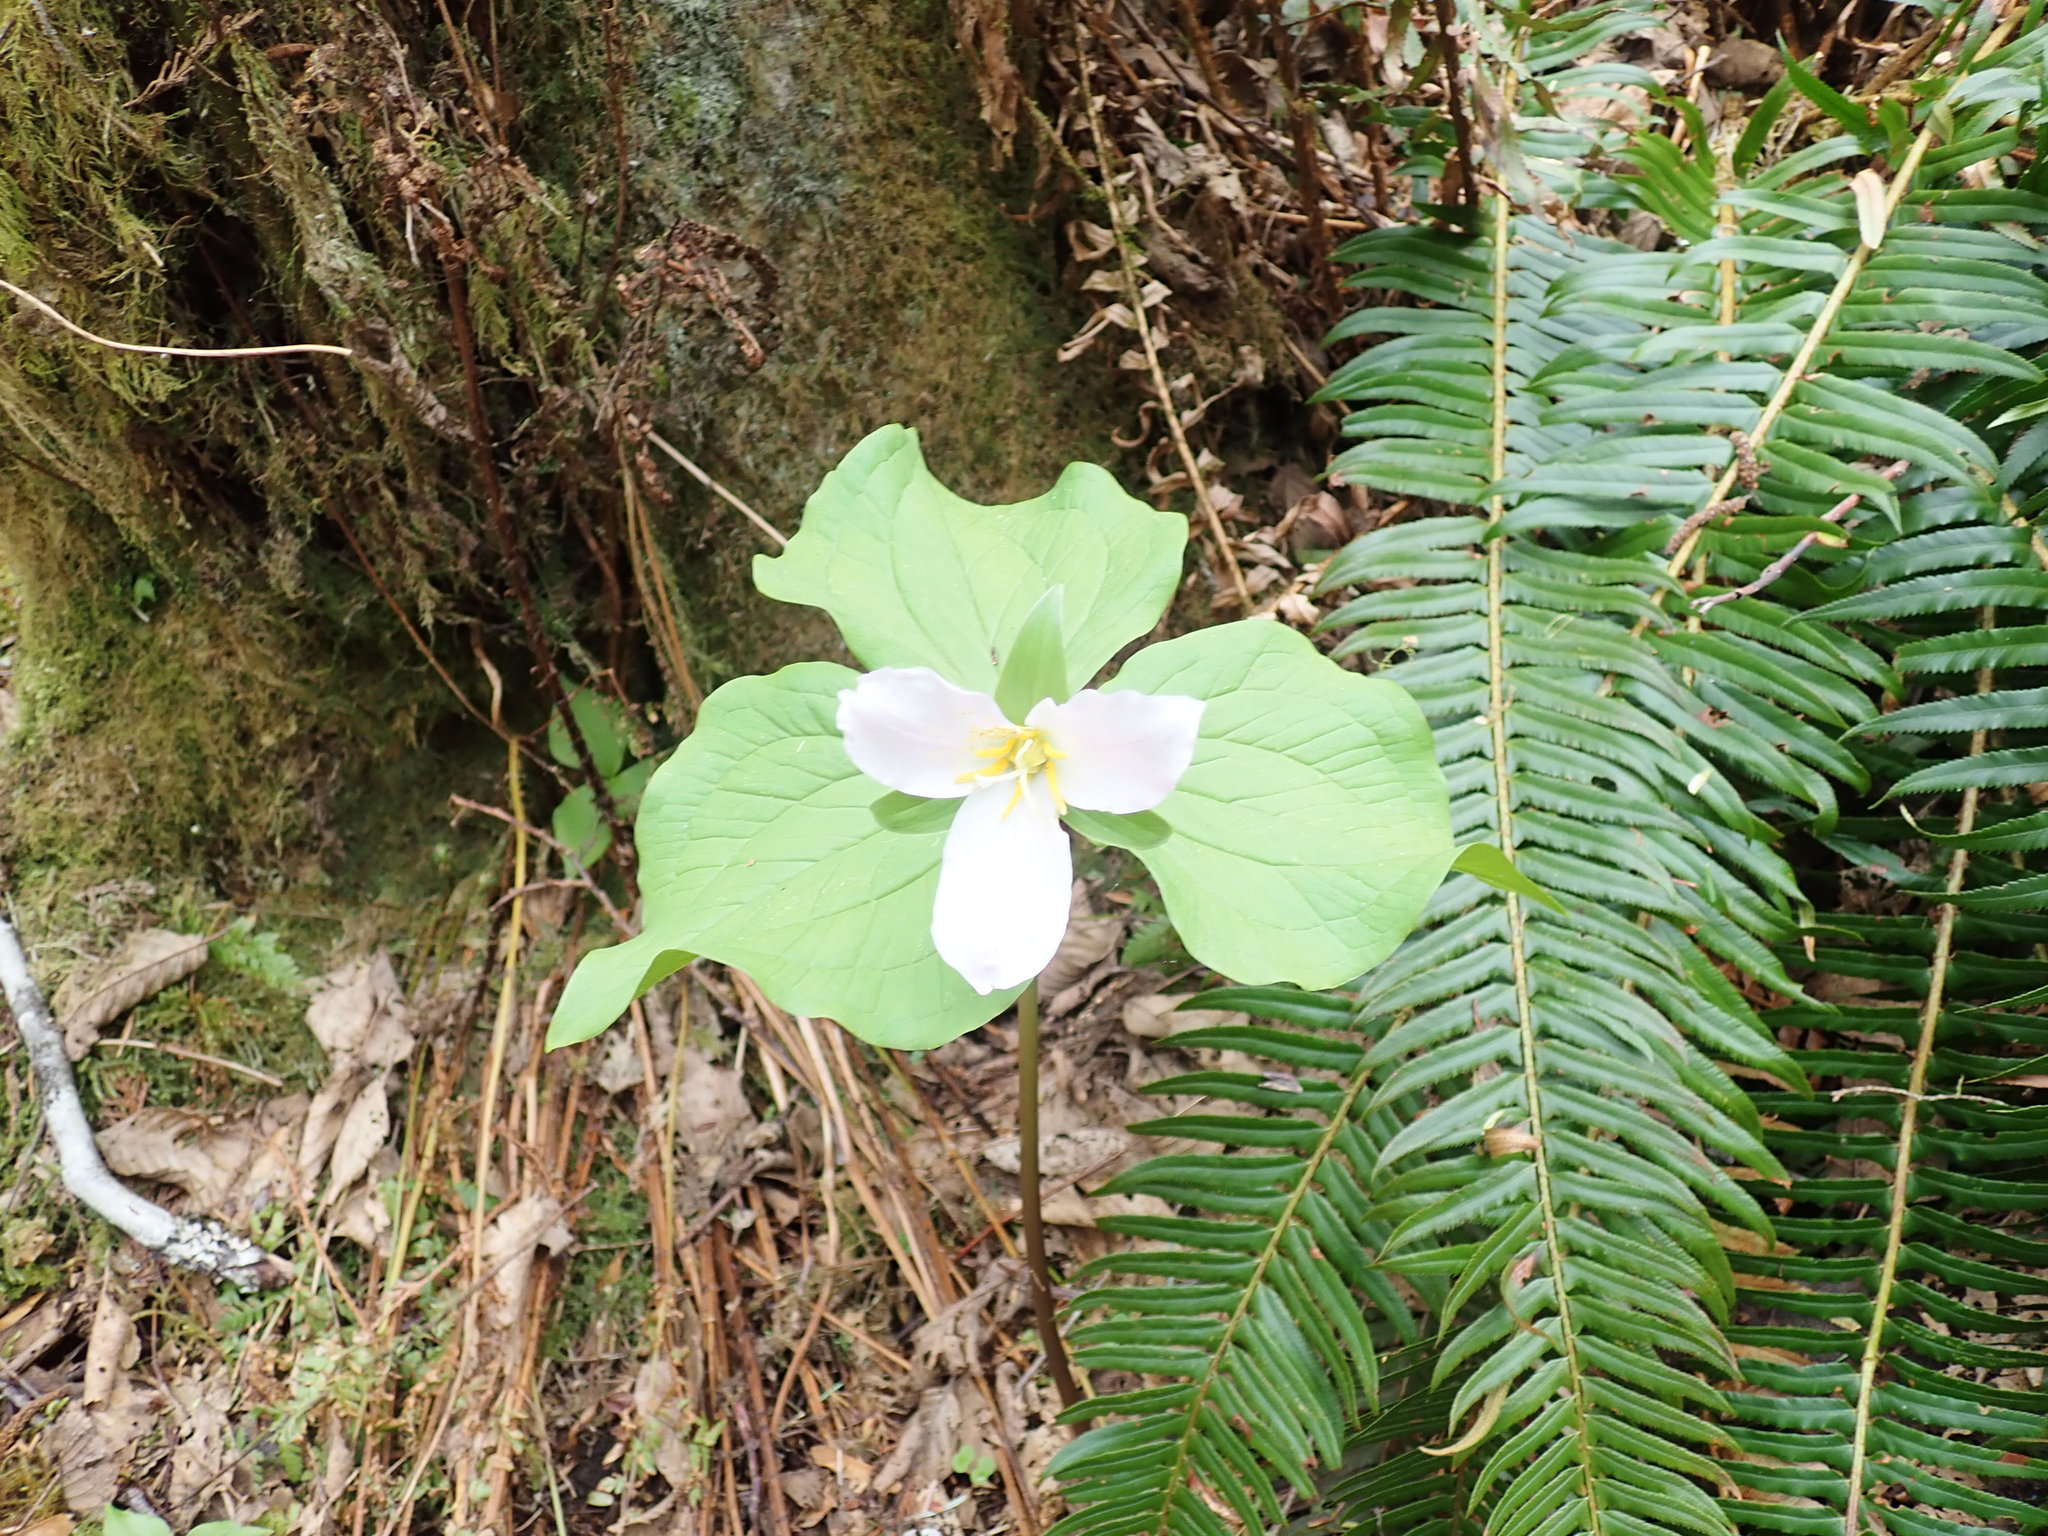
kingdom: Plantae
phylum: Tracheophyta
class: Liliopsida
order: Liliales
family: Melanthiaceae
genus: Trillium
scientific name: Trillium ovatum
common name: Pacific trillium
